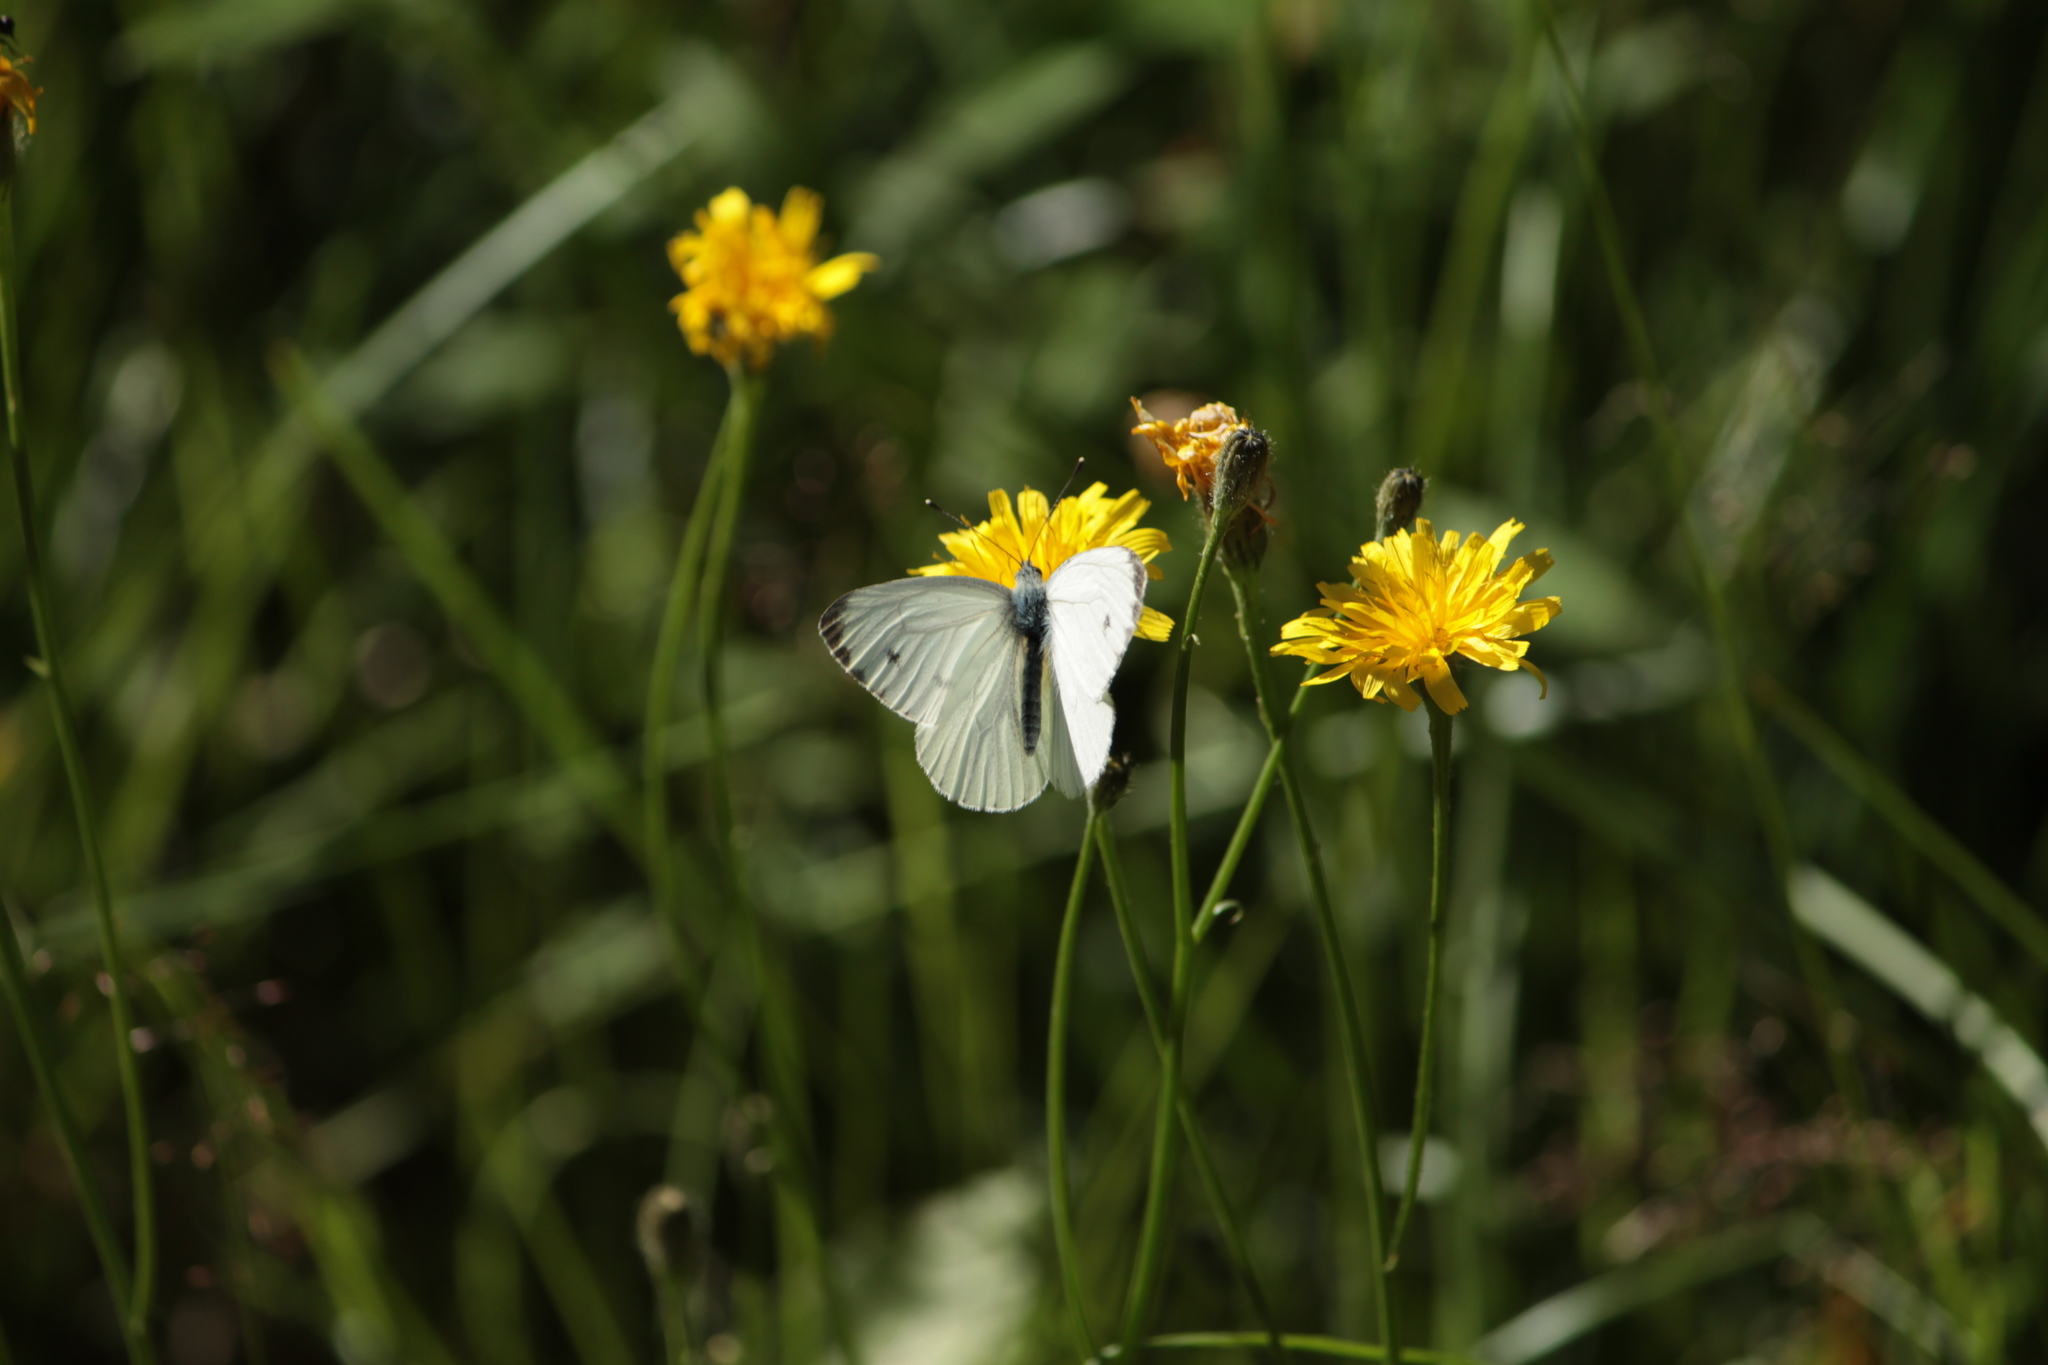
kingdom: Animalia
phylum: Arthropoda
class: Insecta
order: Lepidoptera
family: Pieridae
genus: Pieris
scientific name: Pieris napi
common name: Green-veined white
